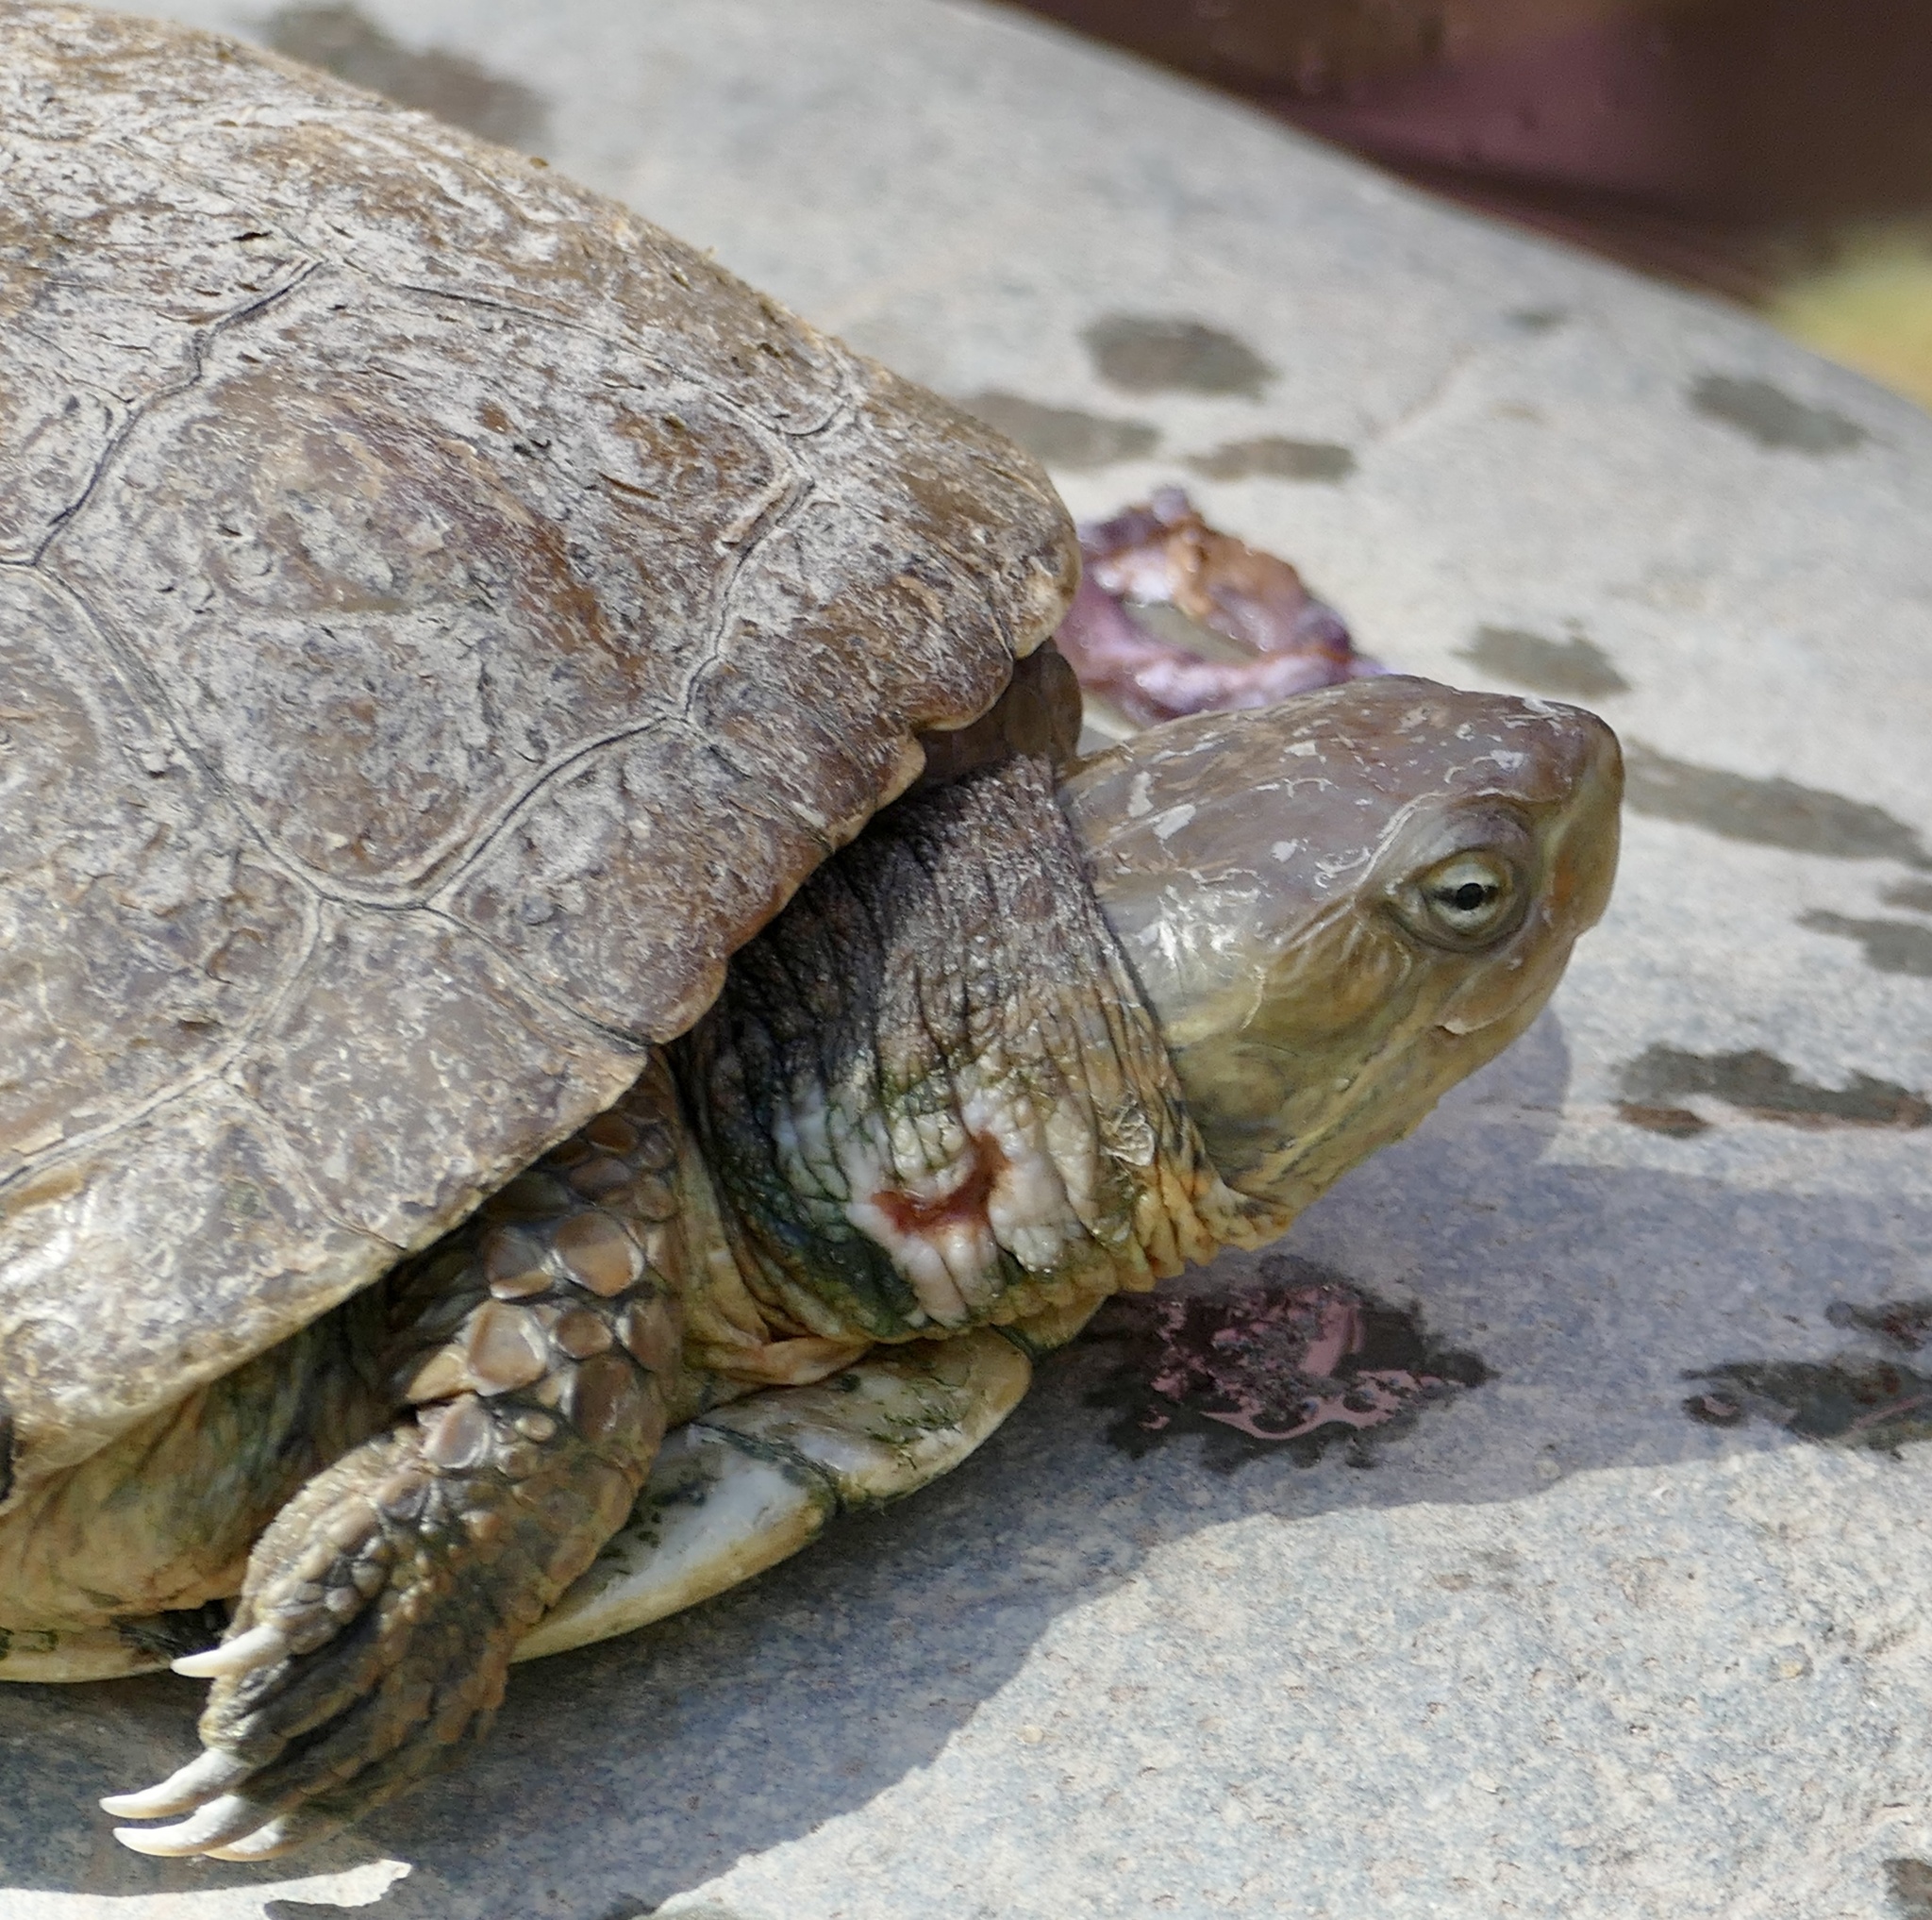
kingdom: Animalia
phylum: Chordata
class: Testudines
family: Geoemydidae
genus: Mauremys
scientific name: Mauremys leprosa
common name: Mediterranean pond turtle
